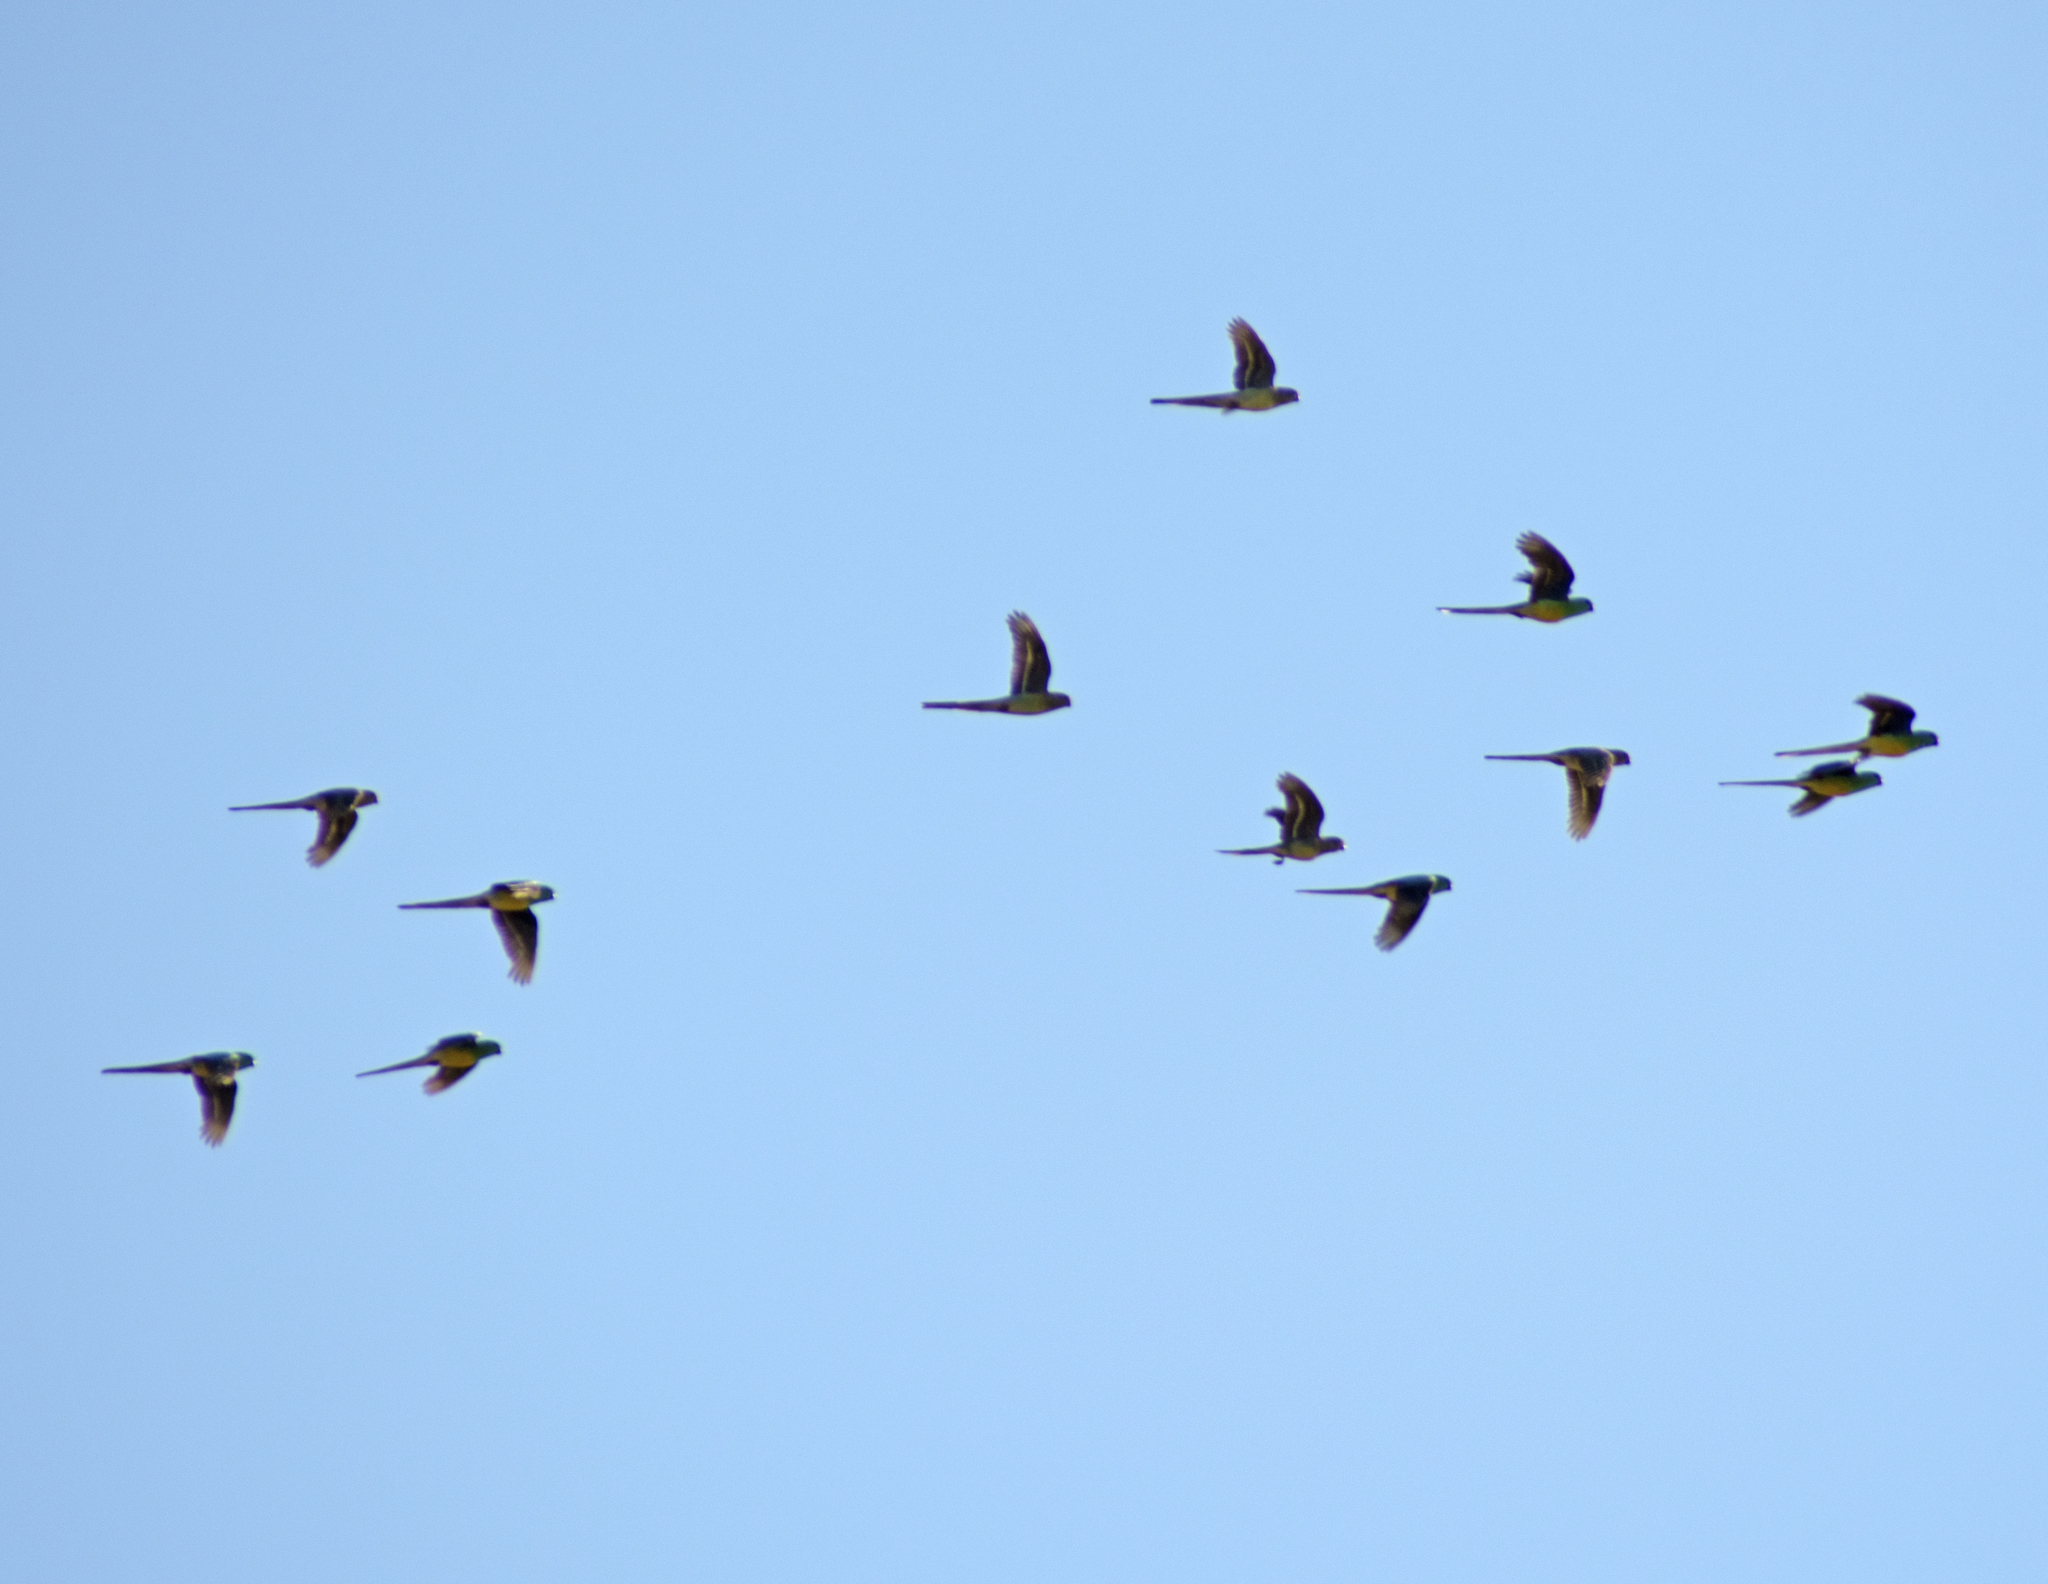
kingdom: Animalia
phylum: Chordata
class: Aves
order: Psittaciformes
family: Psittacidae
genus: Barnardius
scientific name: Barnardius zonarius
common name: Australian ringneck
